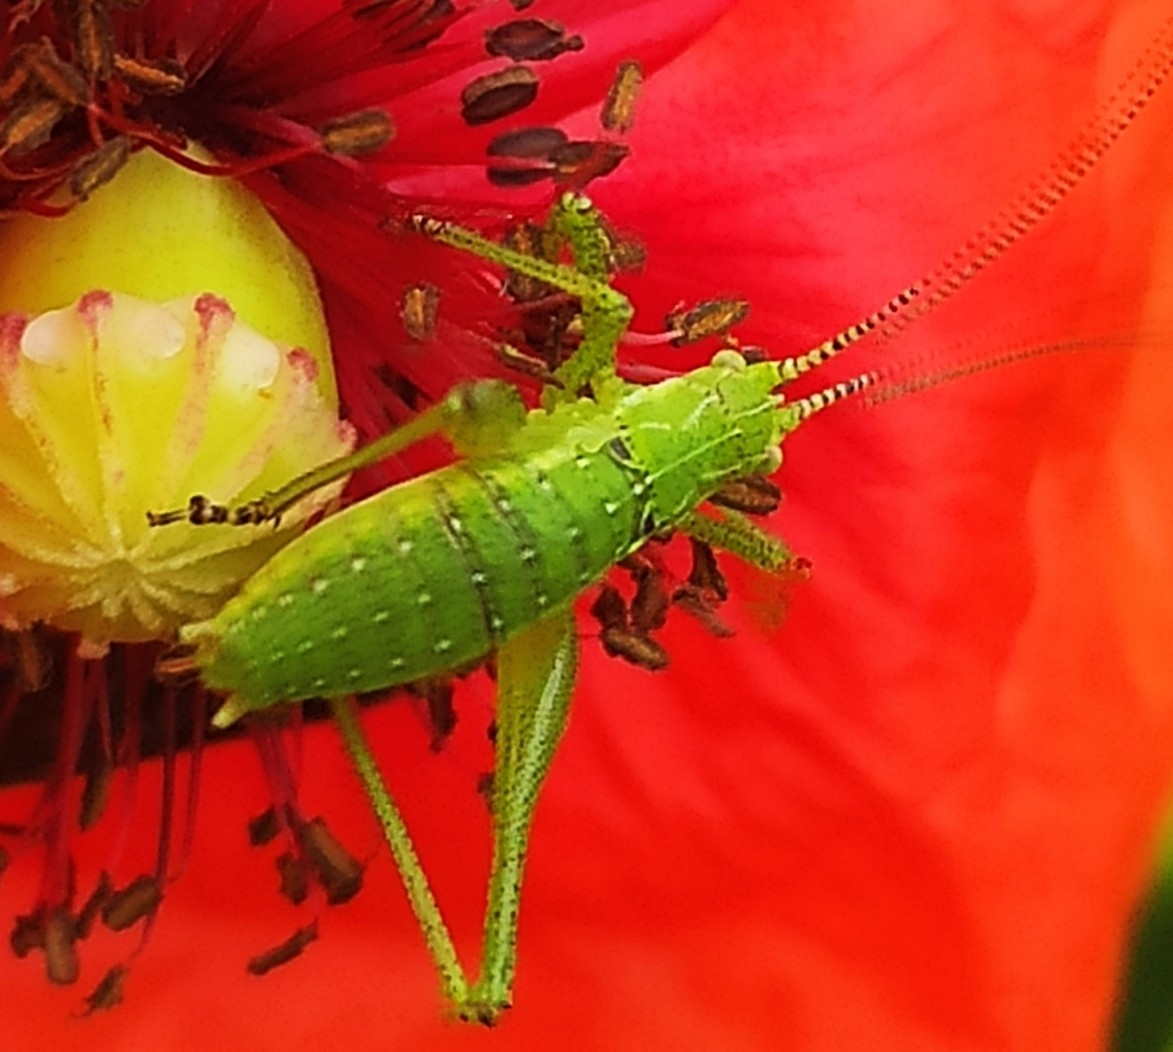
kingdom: Animalia
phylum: Arthropoda
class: Insecta
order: Orthoptera
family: Tettigoniidae
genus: Leptophyes
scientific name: Leptophyes albovittata
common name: Striped bush-cricket
